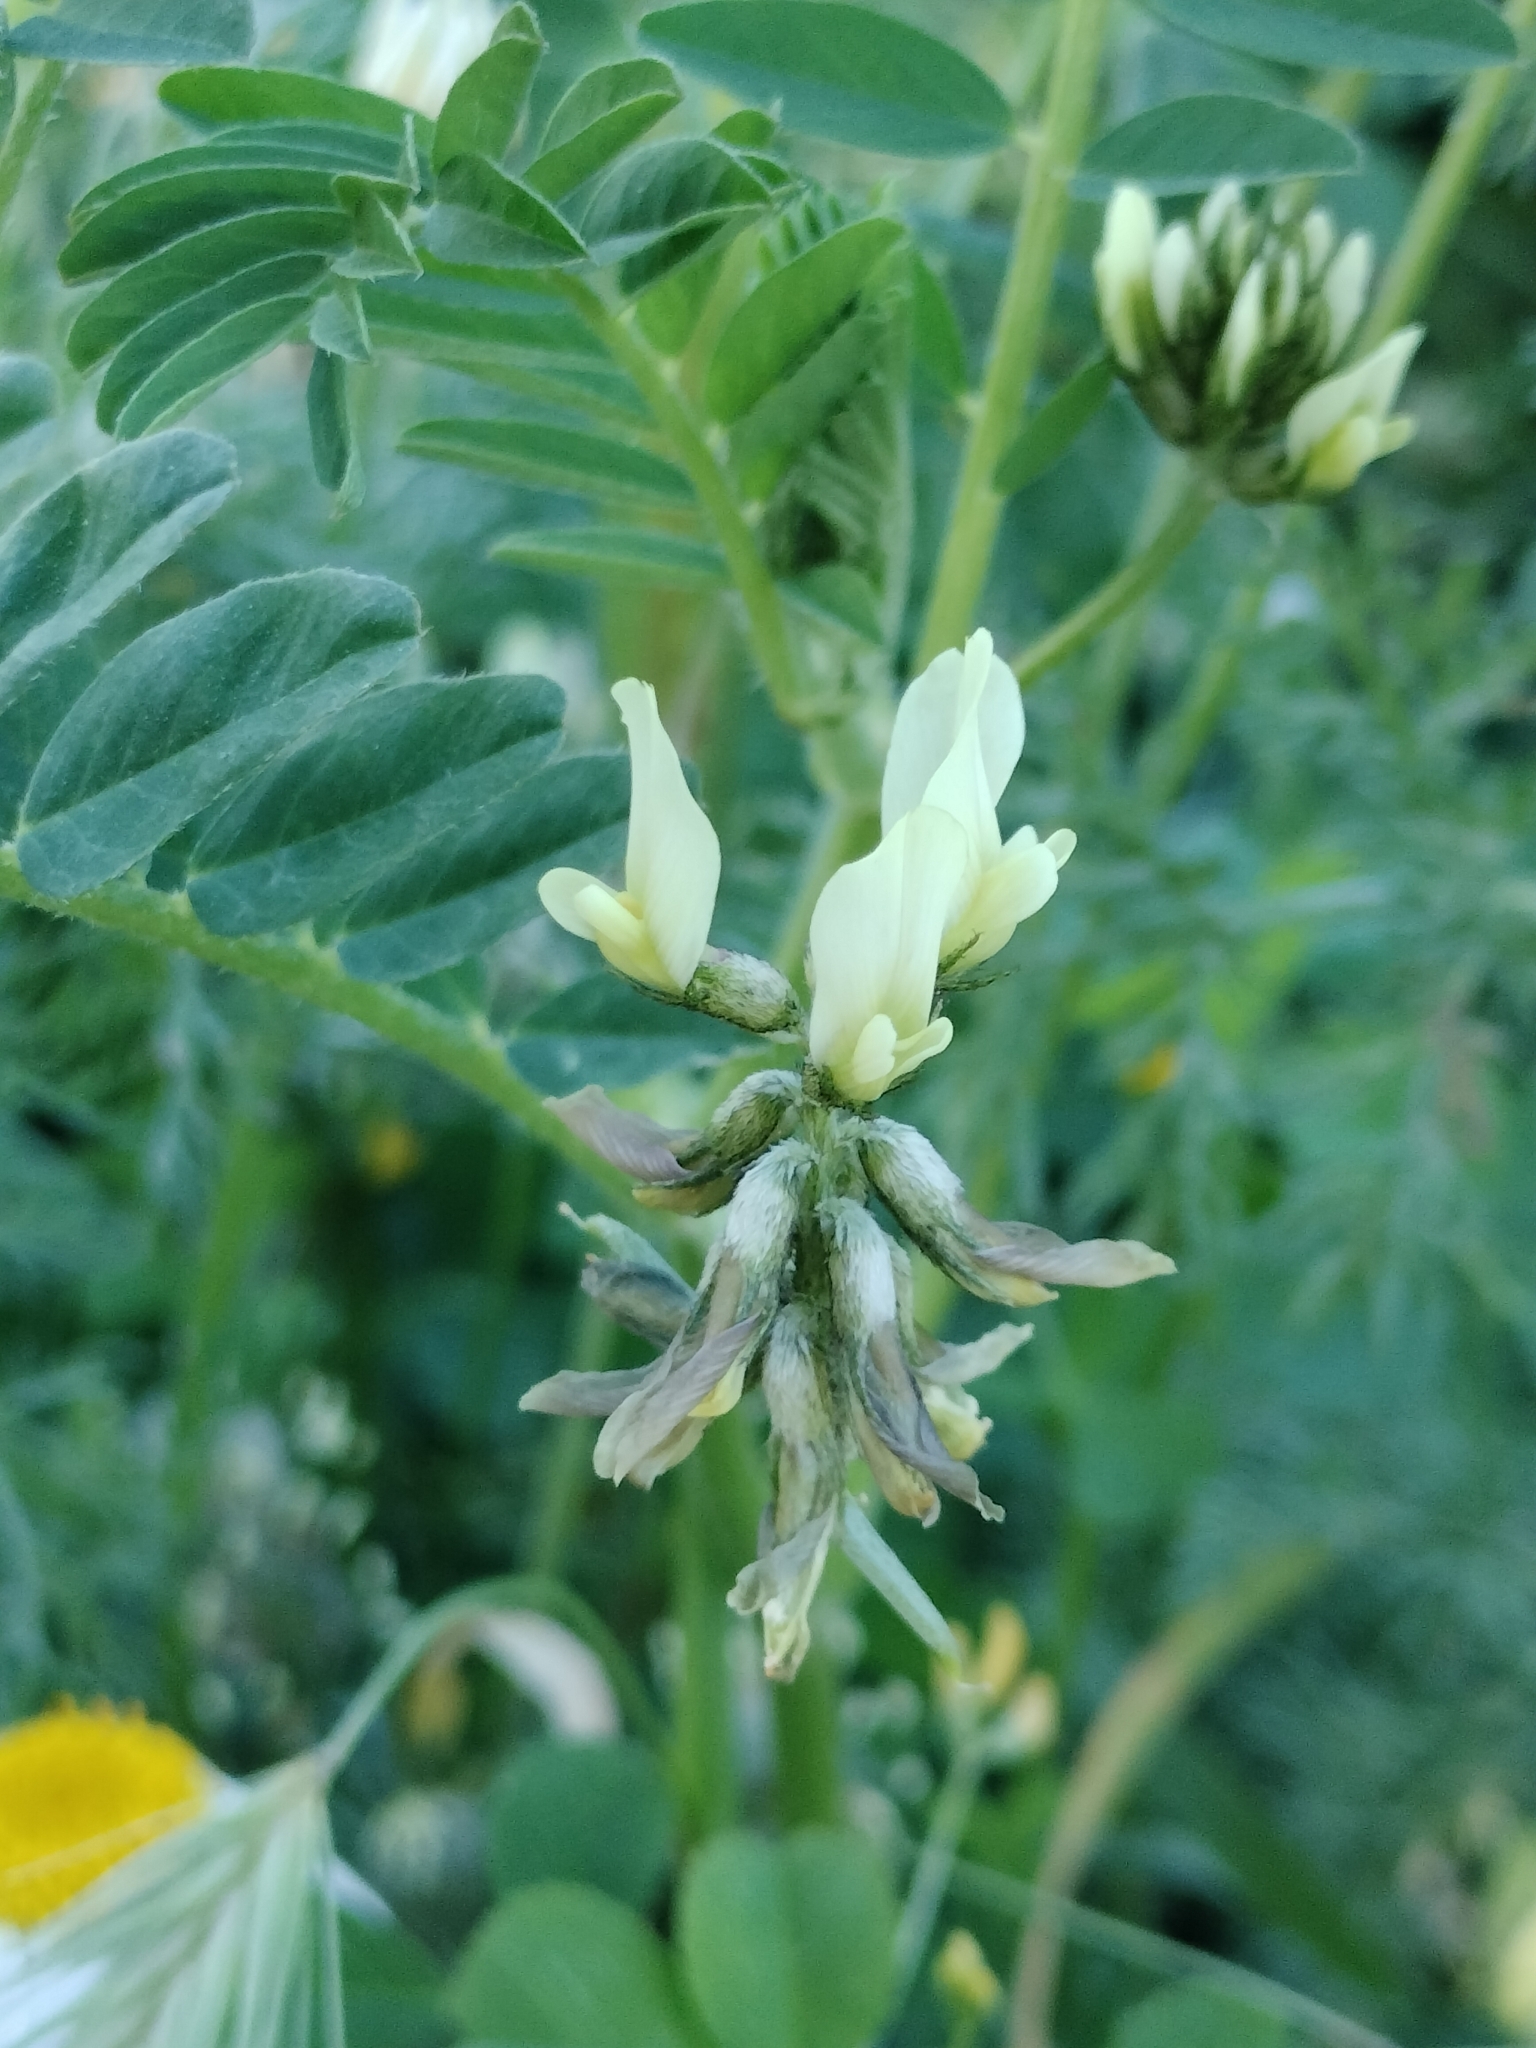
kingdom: Plantae
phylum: Tracheophyta
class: Magnoliopsida
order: Fabales
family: Fabaceae
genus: Astragalus
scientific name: Astragalus hamosus
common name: European milkvetch
